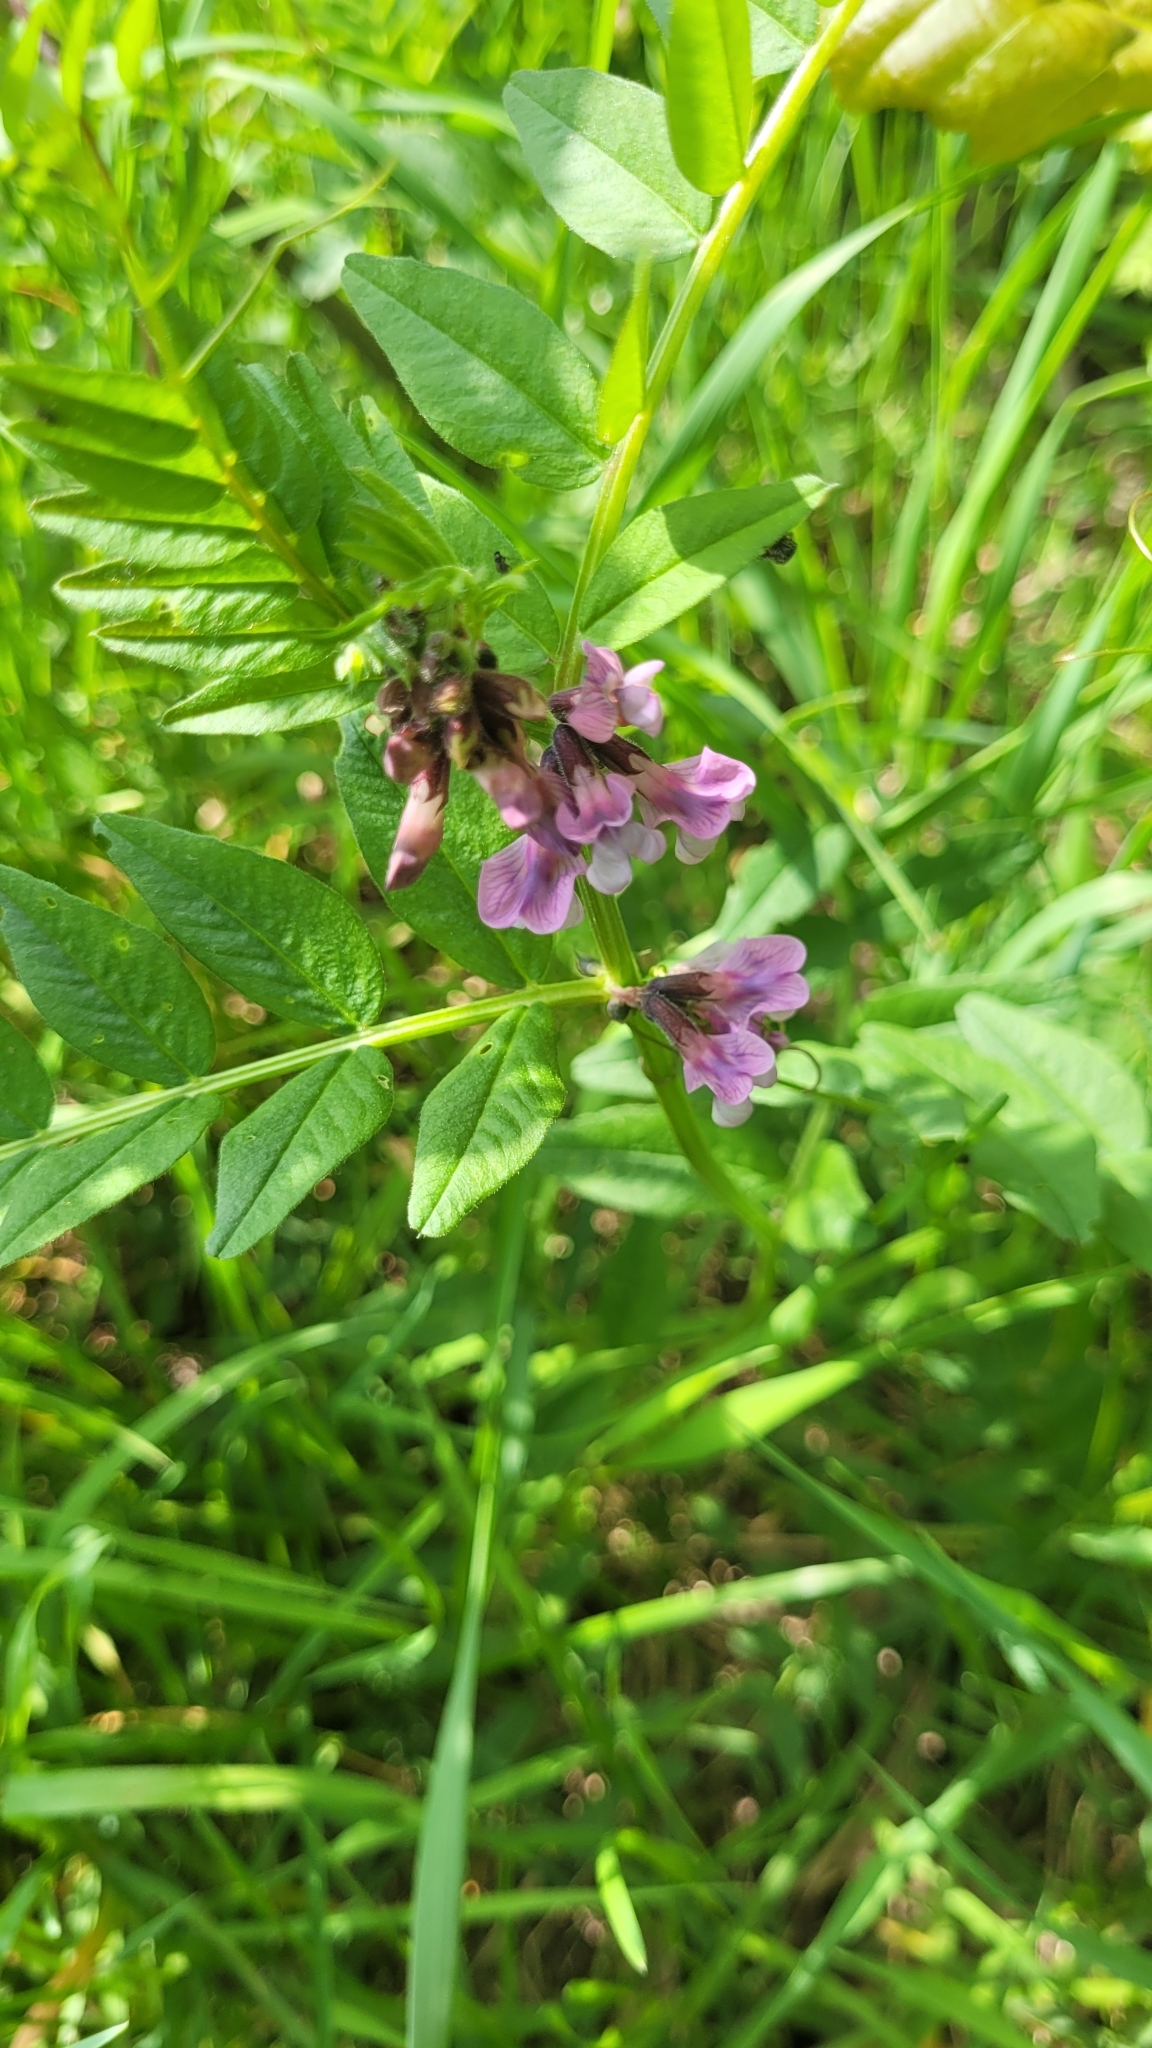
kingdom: Plantae
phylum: Tracheophyta
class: Magnoliopsida
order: Fabales
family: Fabaceae
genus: Vicia
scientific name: Vicia sepium
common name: Bush vetch
